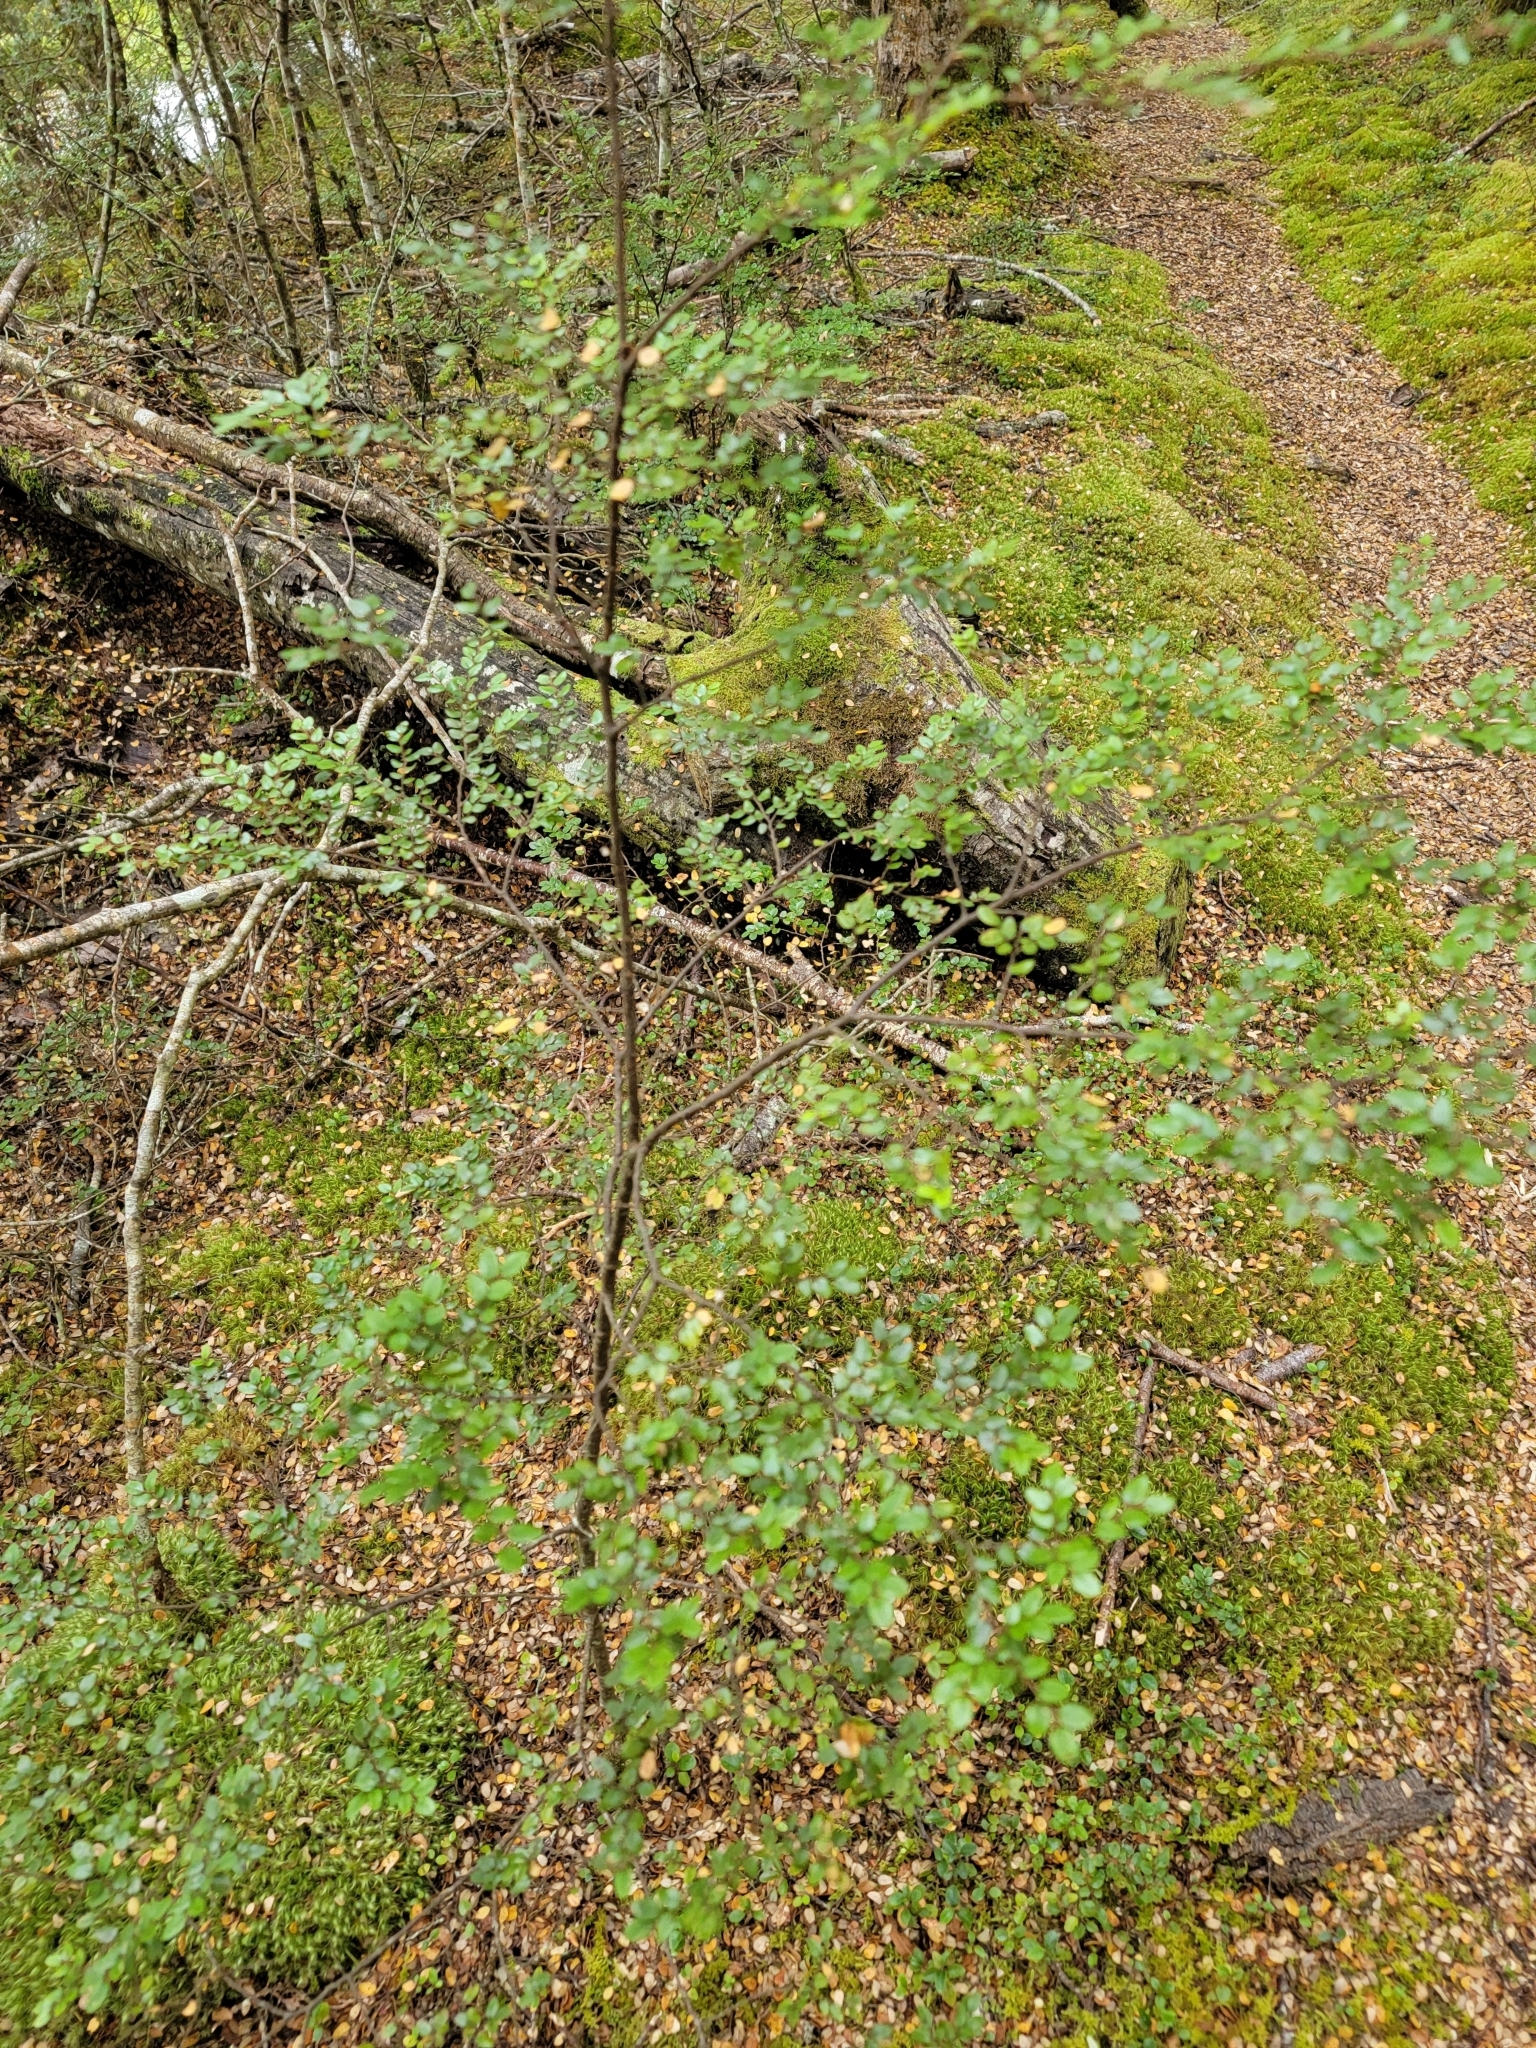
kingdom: Plantae
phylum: Tracheophyta
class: Magnoliopsida
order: Fagales
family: Nothofagaceae
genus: Nothofagus
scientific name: Nothofagus cliffortioides
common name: Mountain beech
